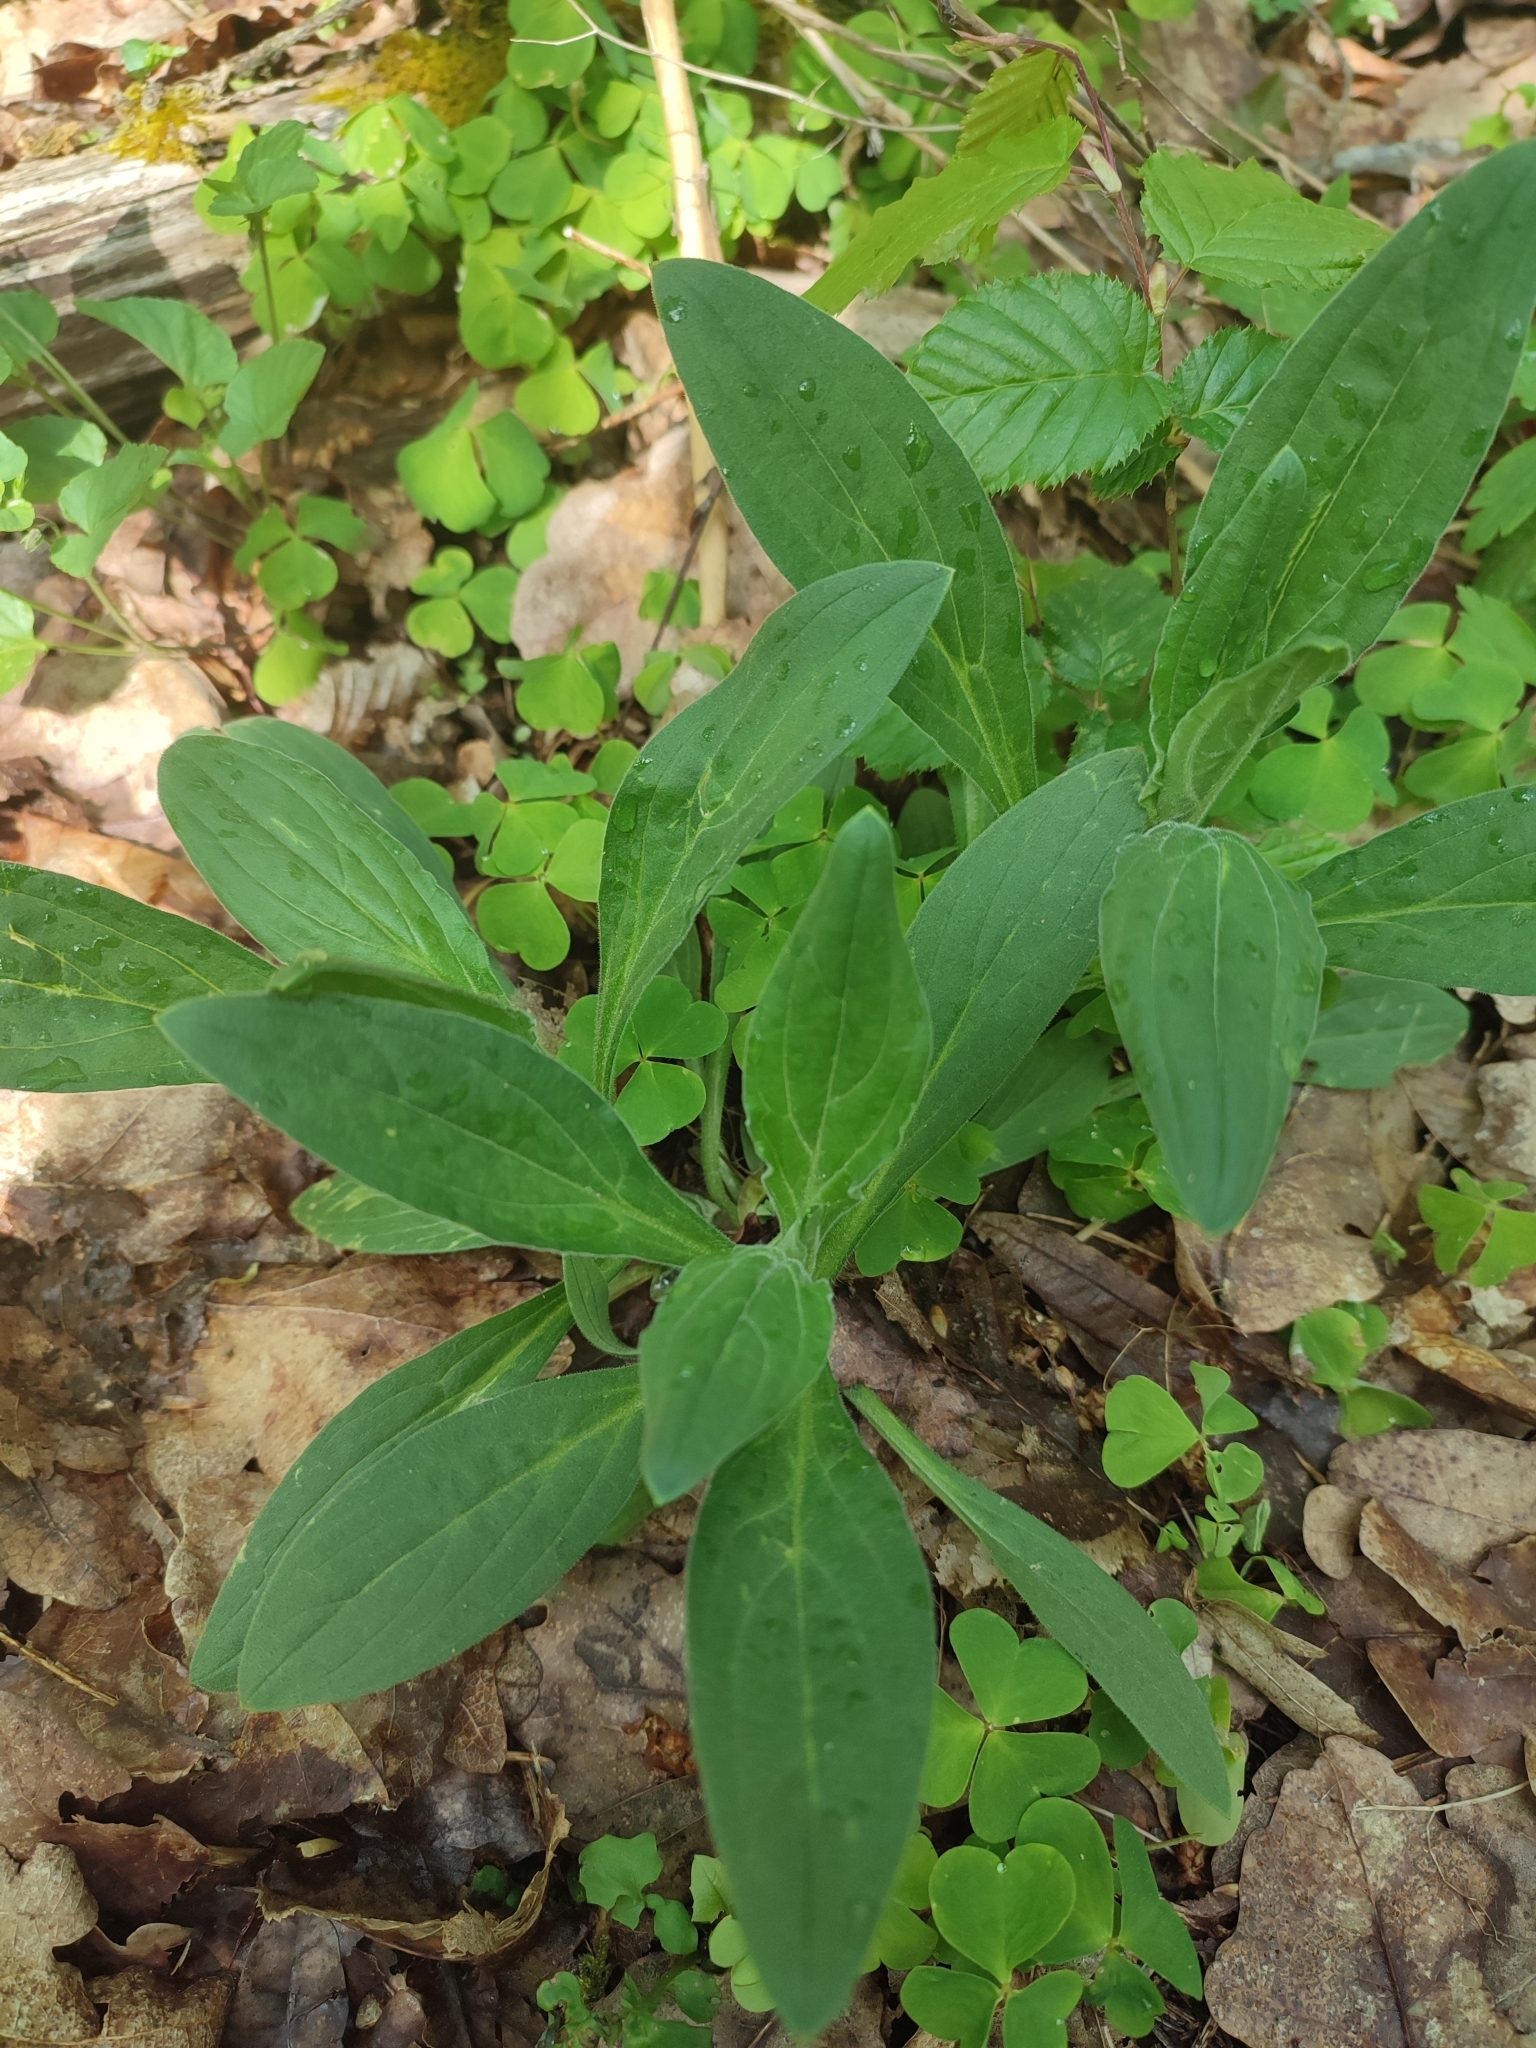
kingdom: Plantae
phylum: Tracheophyta
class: Magnoliopsida
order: Caryophyllales
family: Caryophyllaceae
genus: Silene
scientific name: Silene latifolia
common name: White campion
